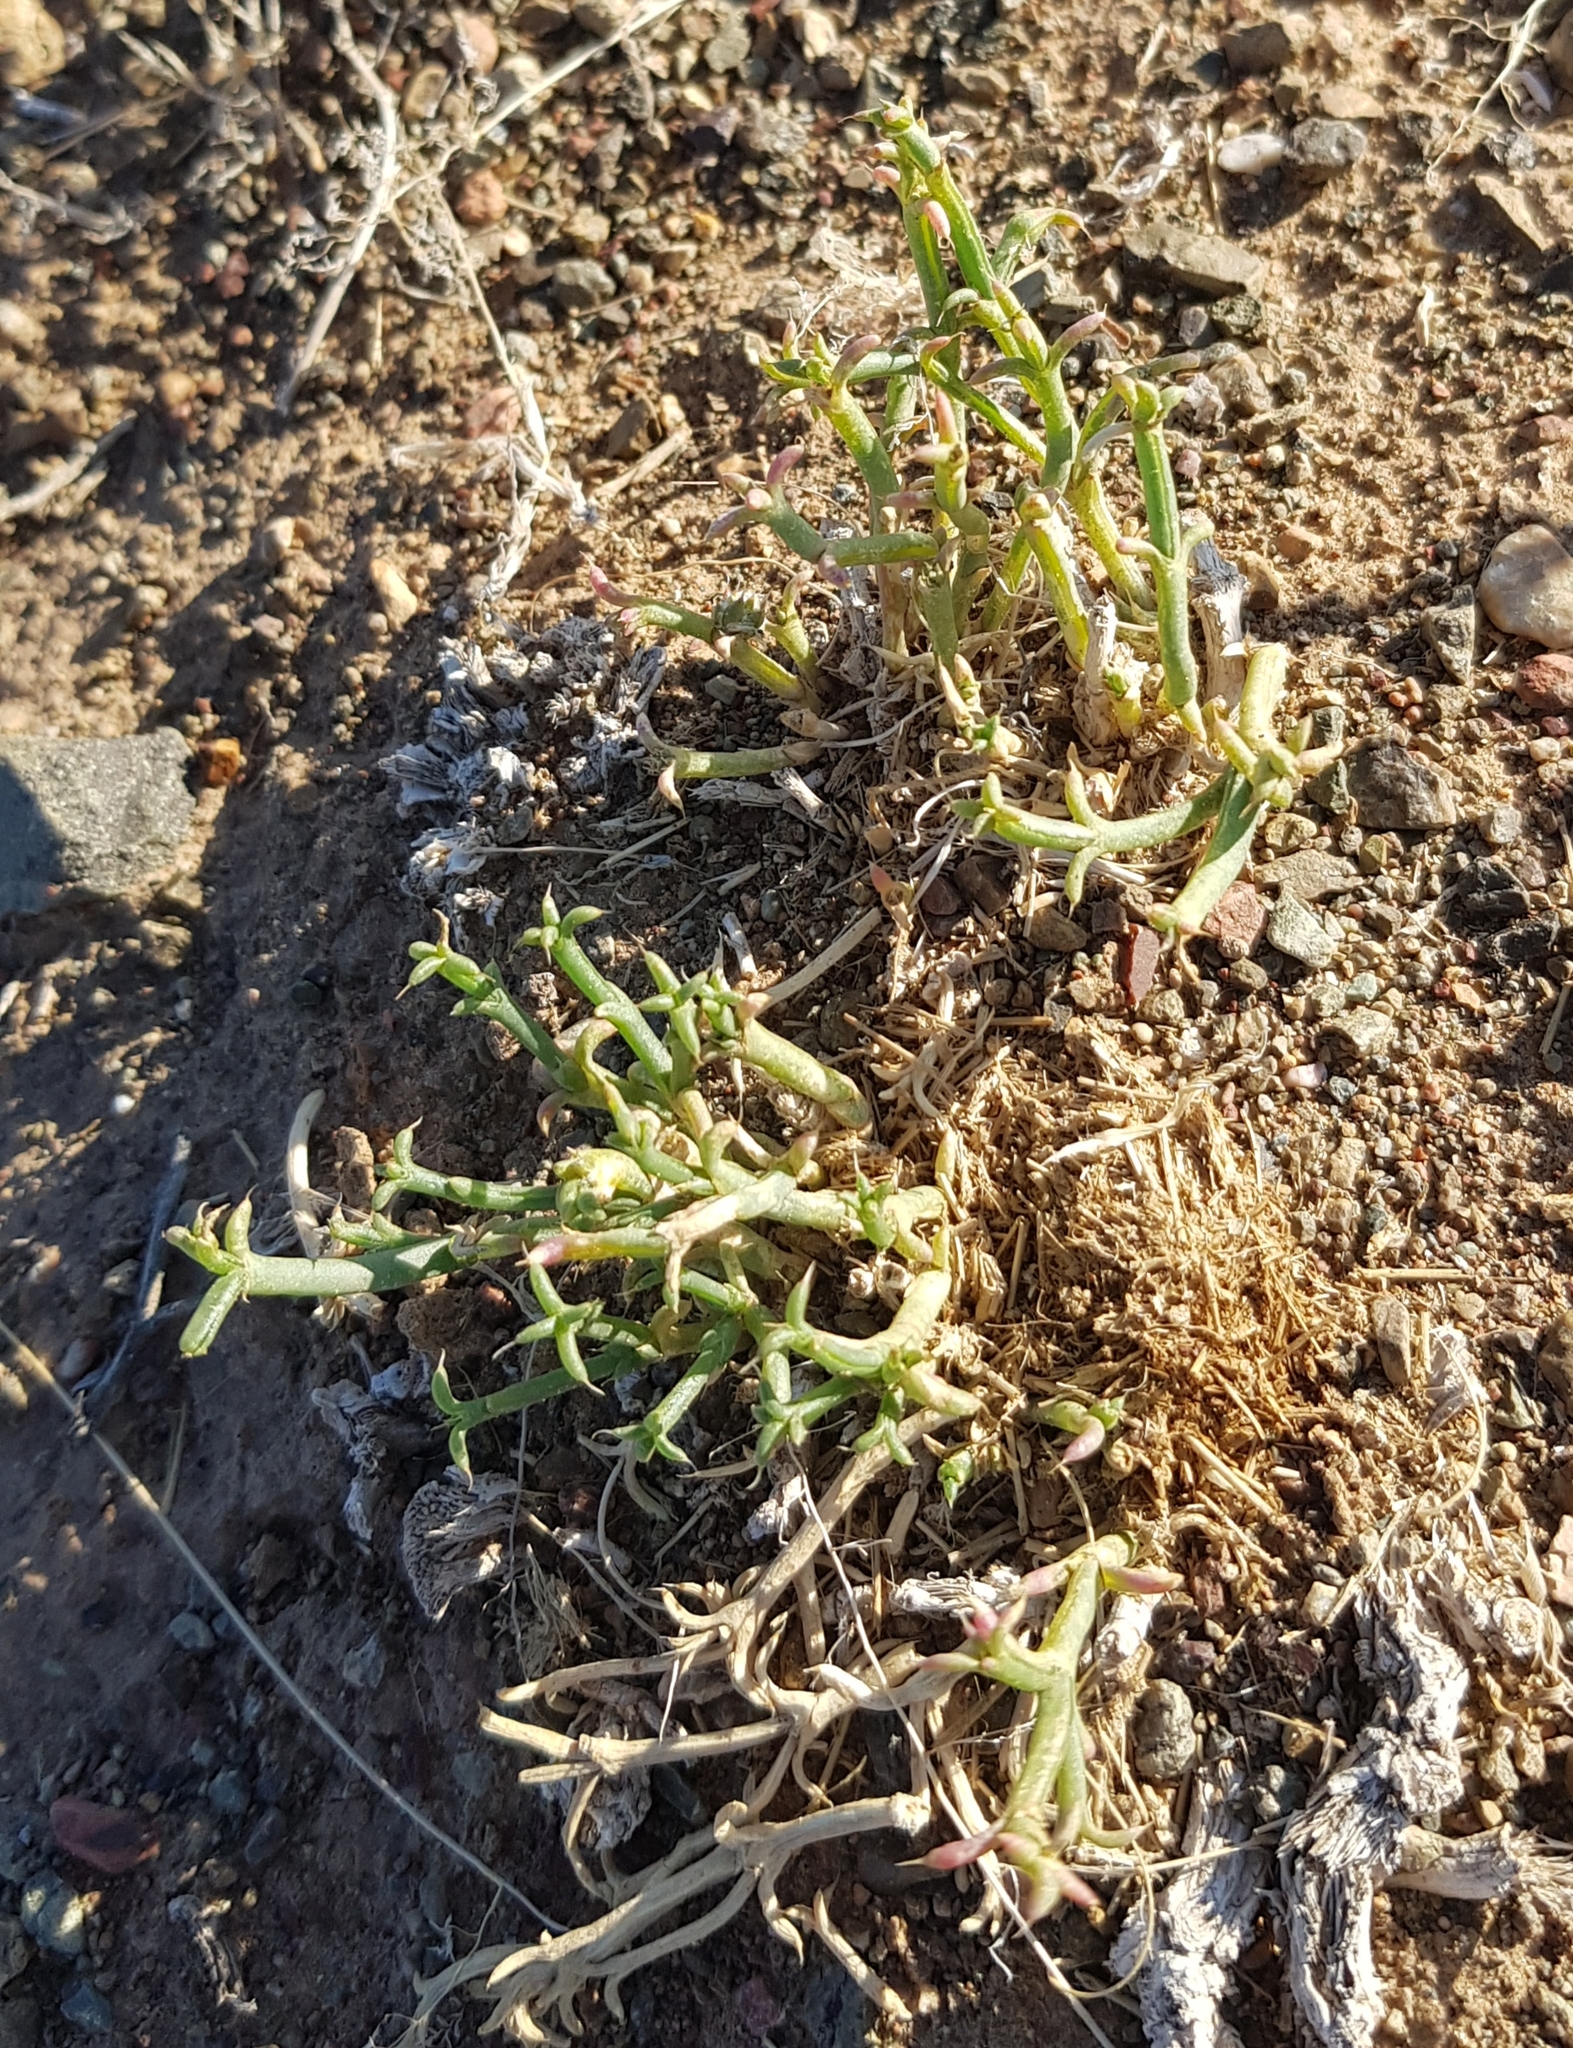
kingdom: Plantae
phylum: Tracheophyta
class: Magnoliopsida
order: Caryophyllales
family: Amaranthaceae
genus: Anabasis
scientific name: Anabasis brevifolia
